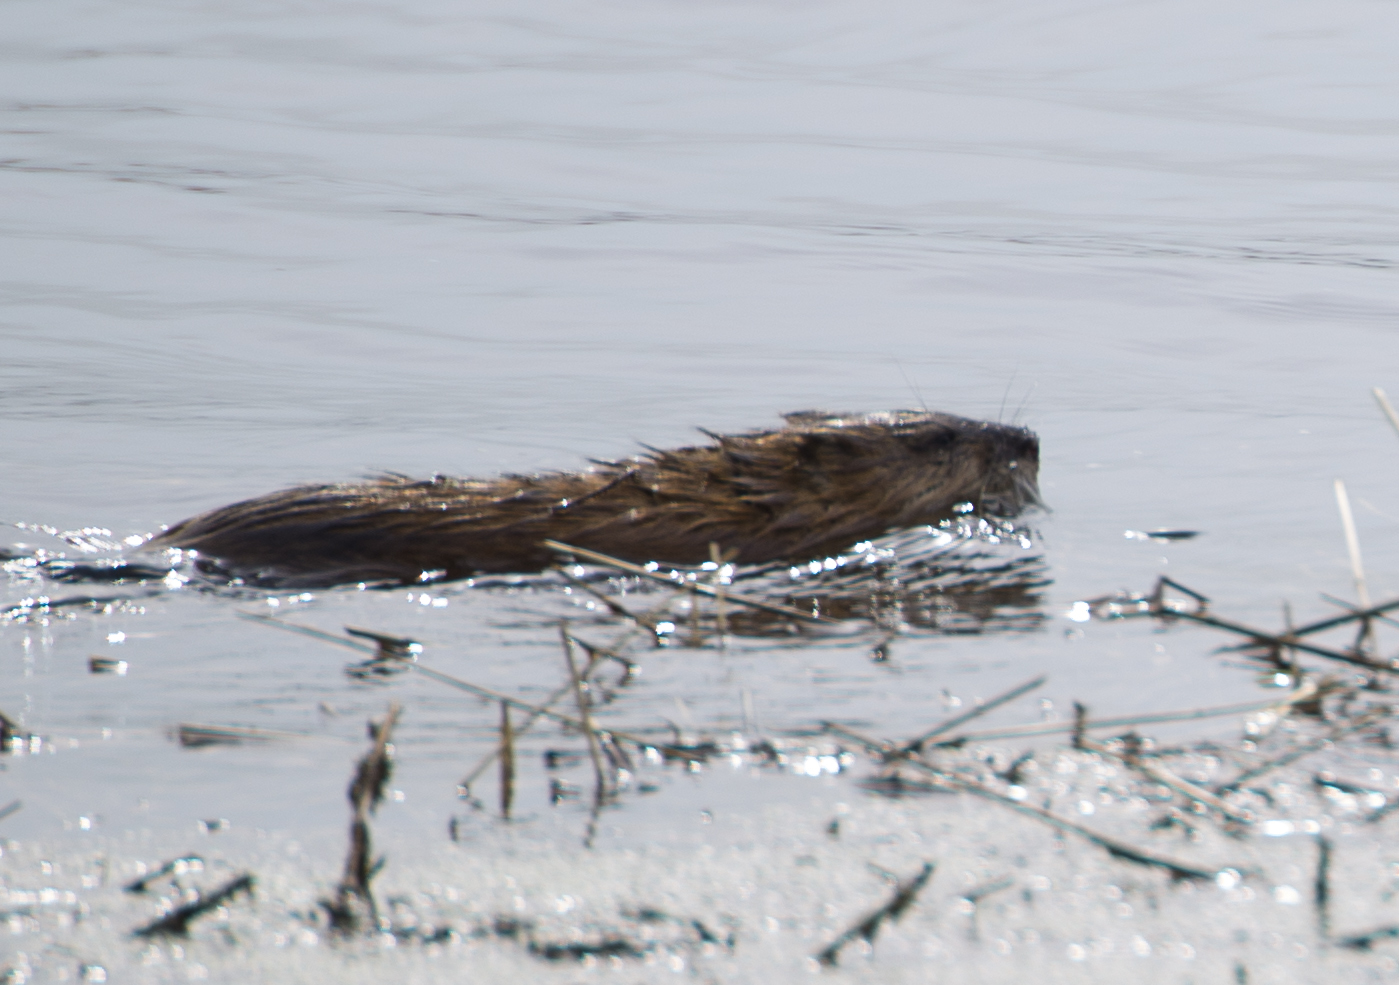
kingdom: Animalia
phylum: Chordata
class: Mammalia
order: Rodentia
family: Cricetidae
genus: Ondatra
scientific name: Ondatra zibethicus
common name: Muskrat
